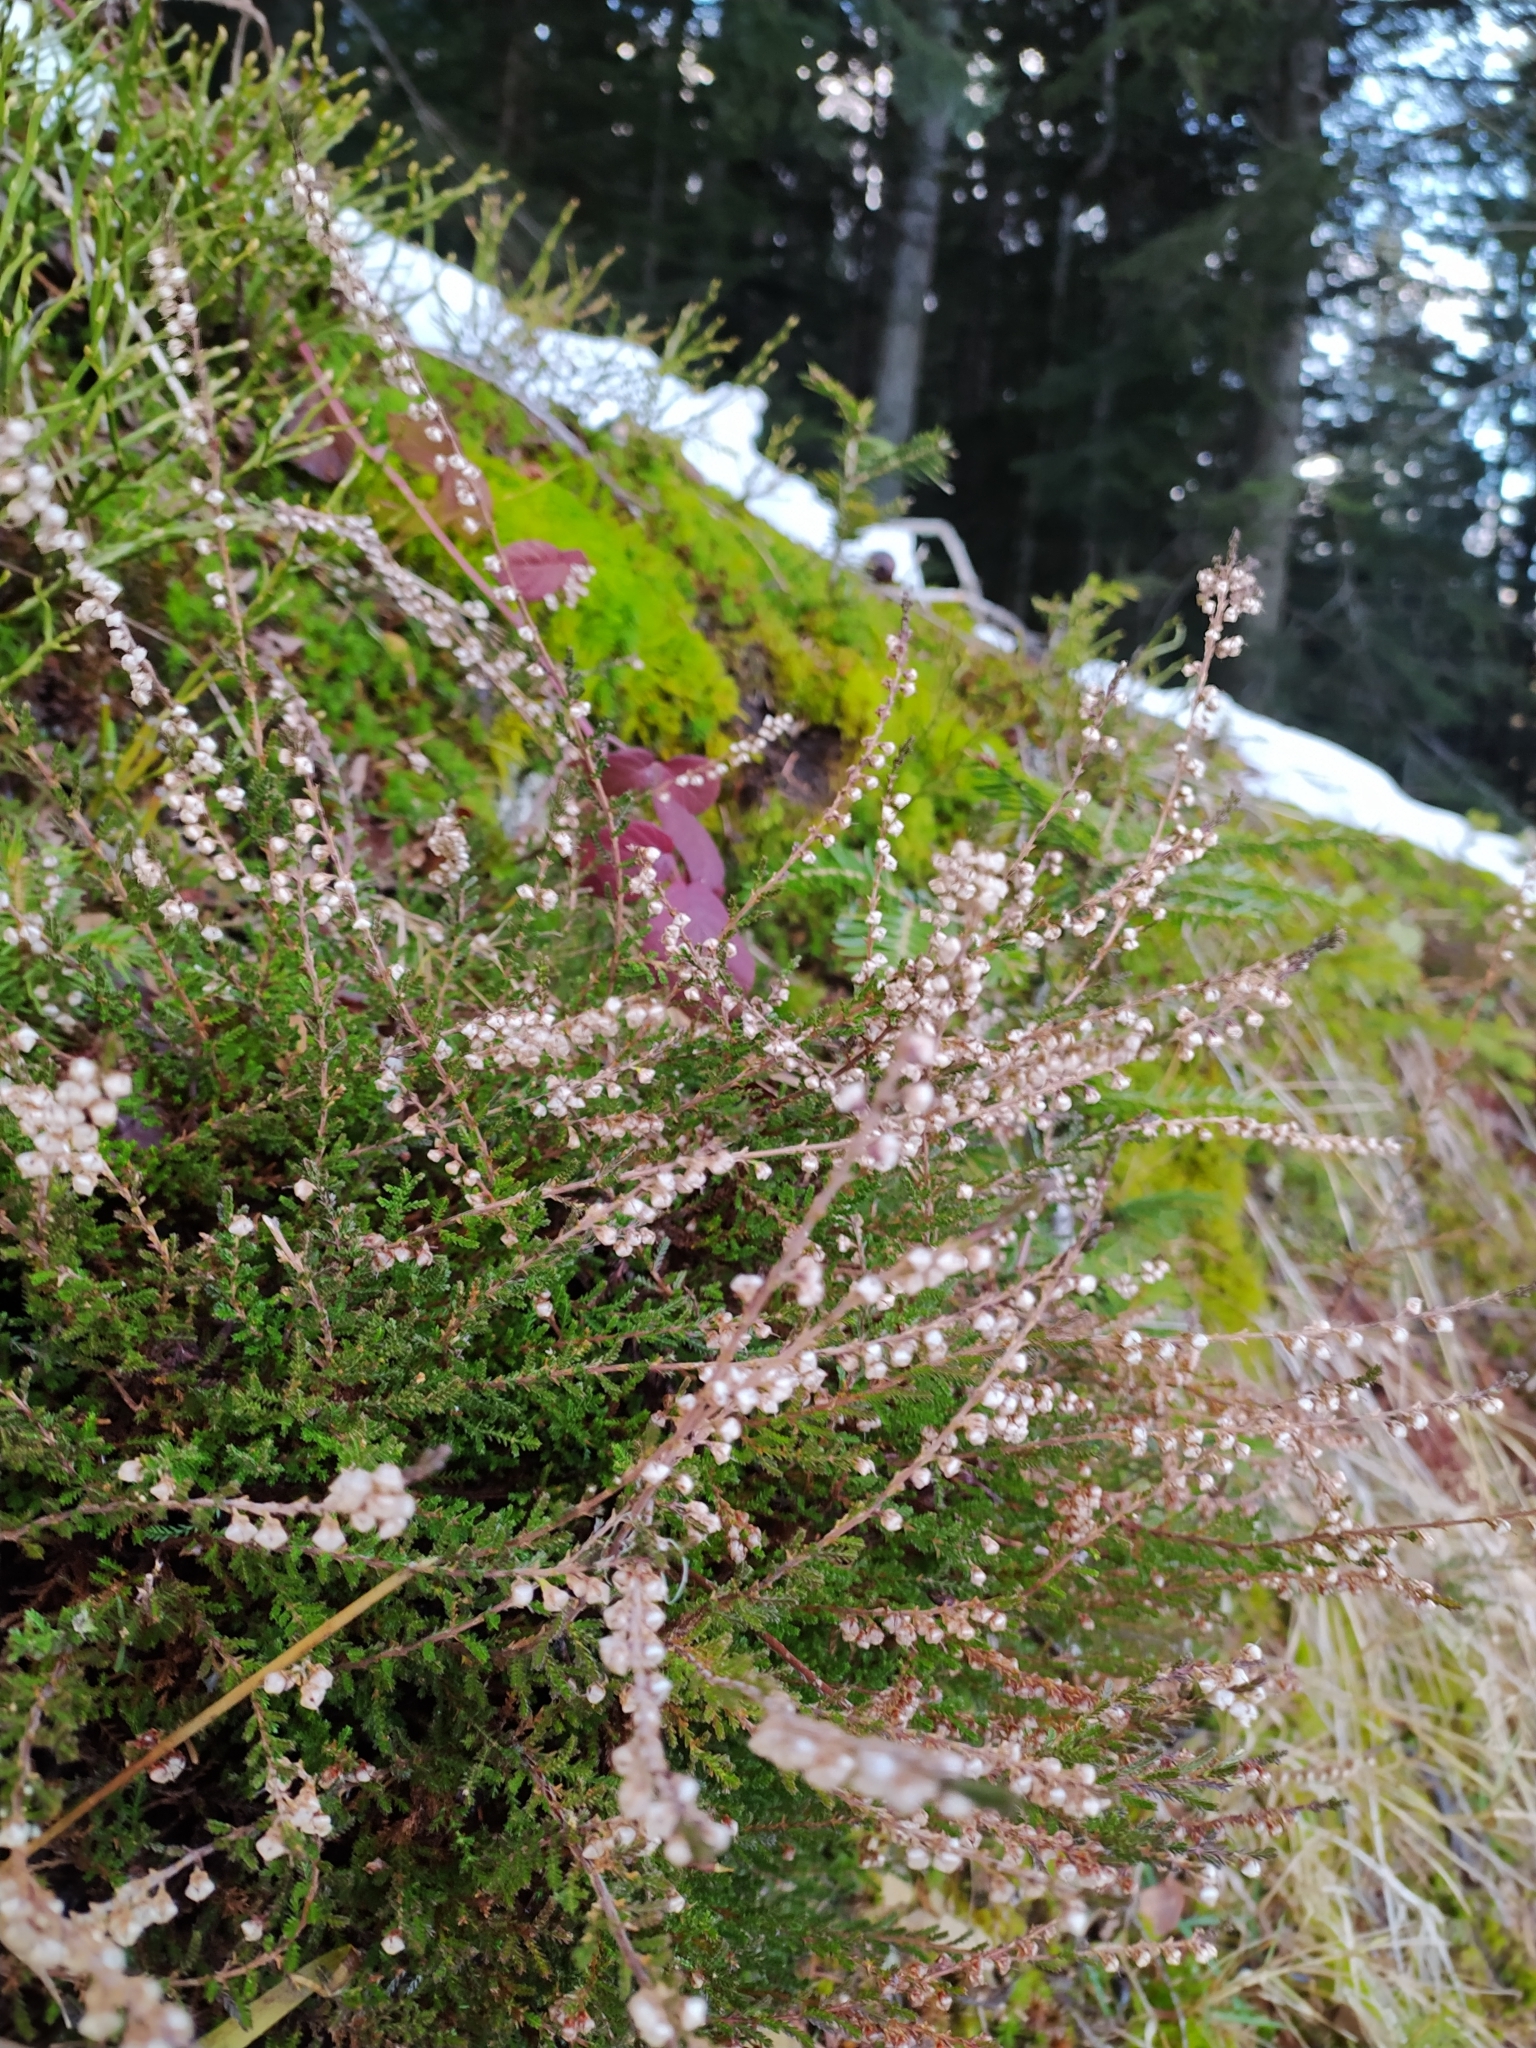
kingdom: Plantae
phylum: Tracheophyta
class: Magnoliopsida
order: Ericales
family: Ericaceae
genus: Calluna
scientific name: Calluna vulgaris
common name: Heather
